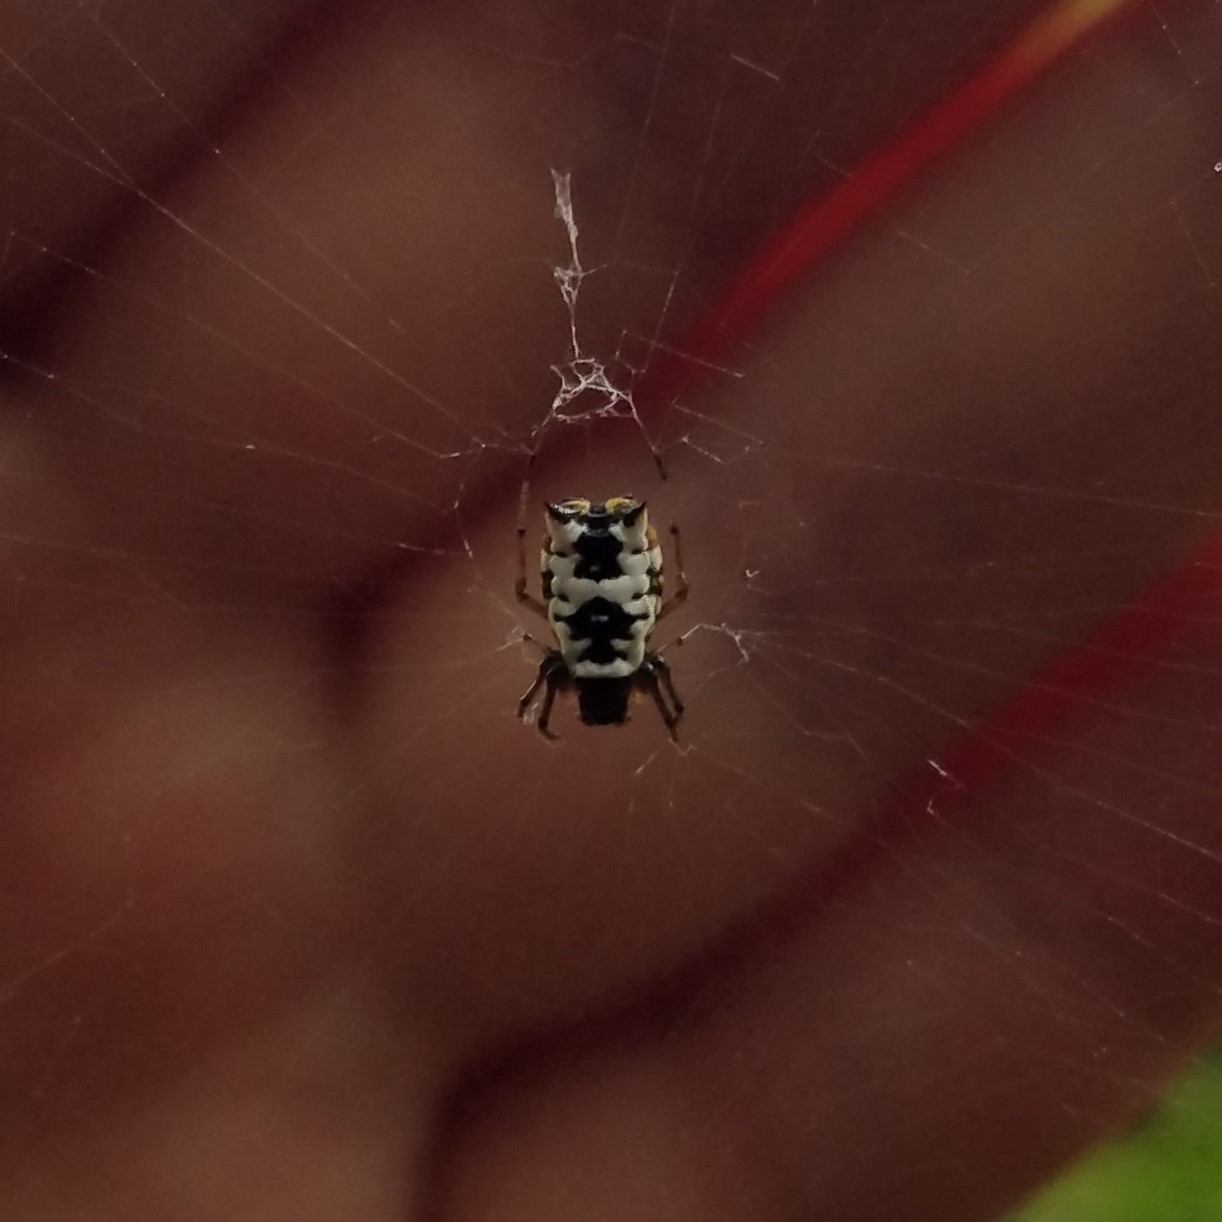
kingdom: Animalia
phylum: Arthropoda
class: Arachnida
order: Araneae
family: Araneidae
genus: Micrathena
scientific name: Micrathena mitrata
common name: Orb weavers
